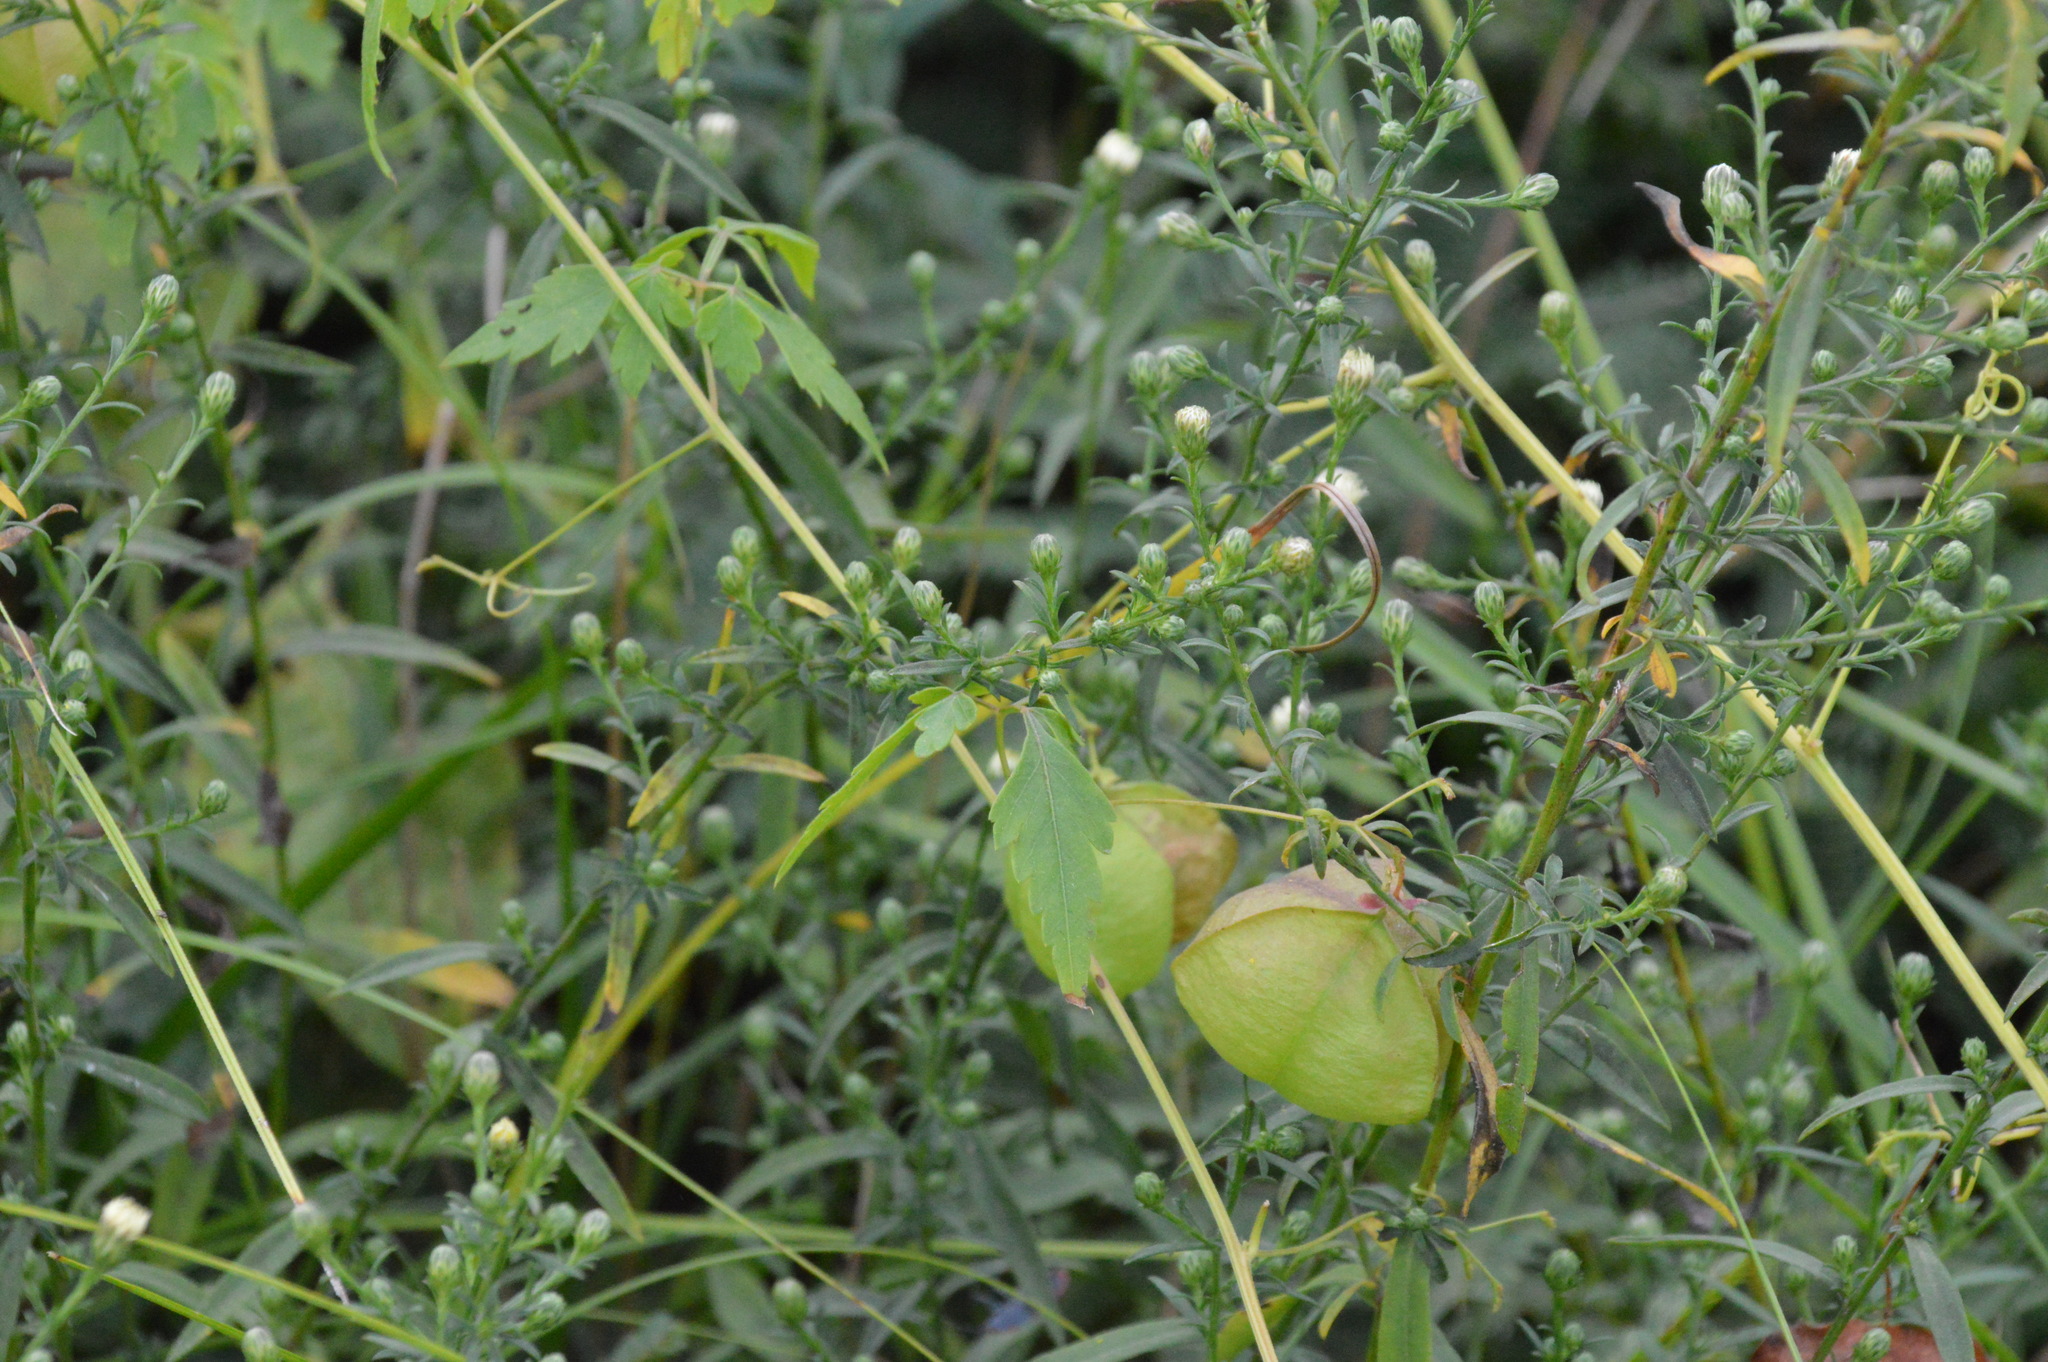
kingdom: Plantae
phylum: Tracheophyta
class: Magnoliopsida
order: Sapindales
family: Sapindaceae
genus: Cardiospermum
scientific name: Cardiospermum halicacabum
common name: Balloon vine
